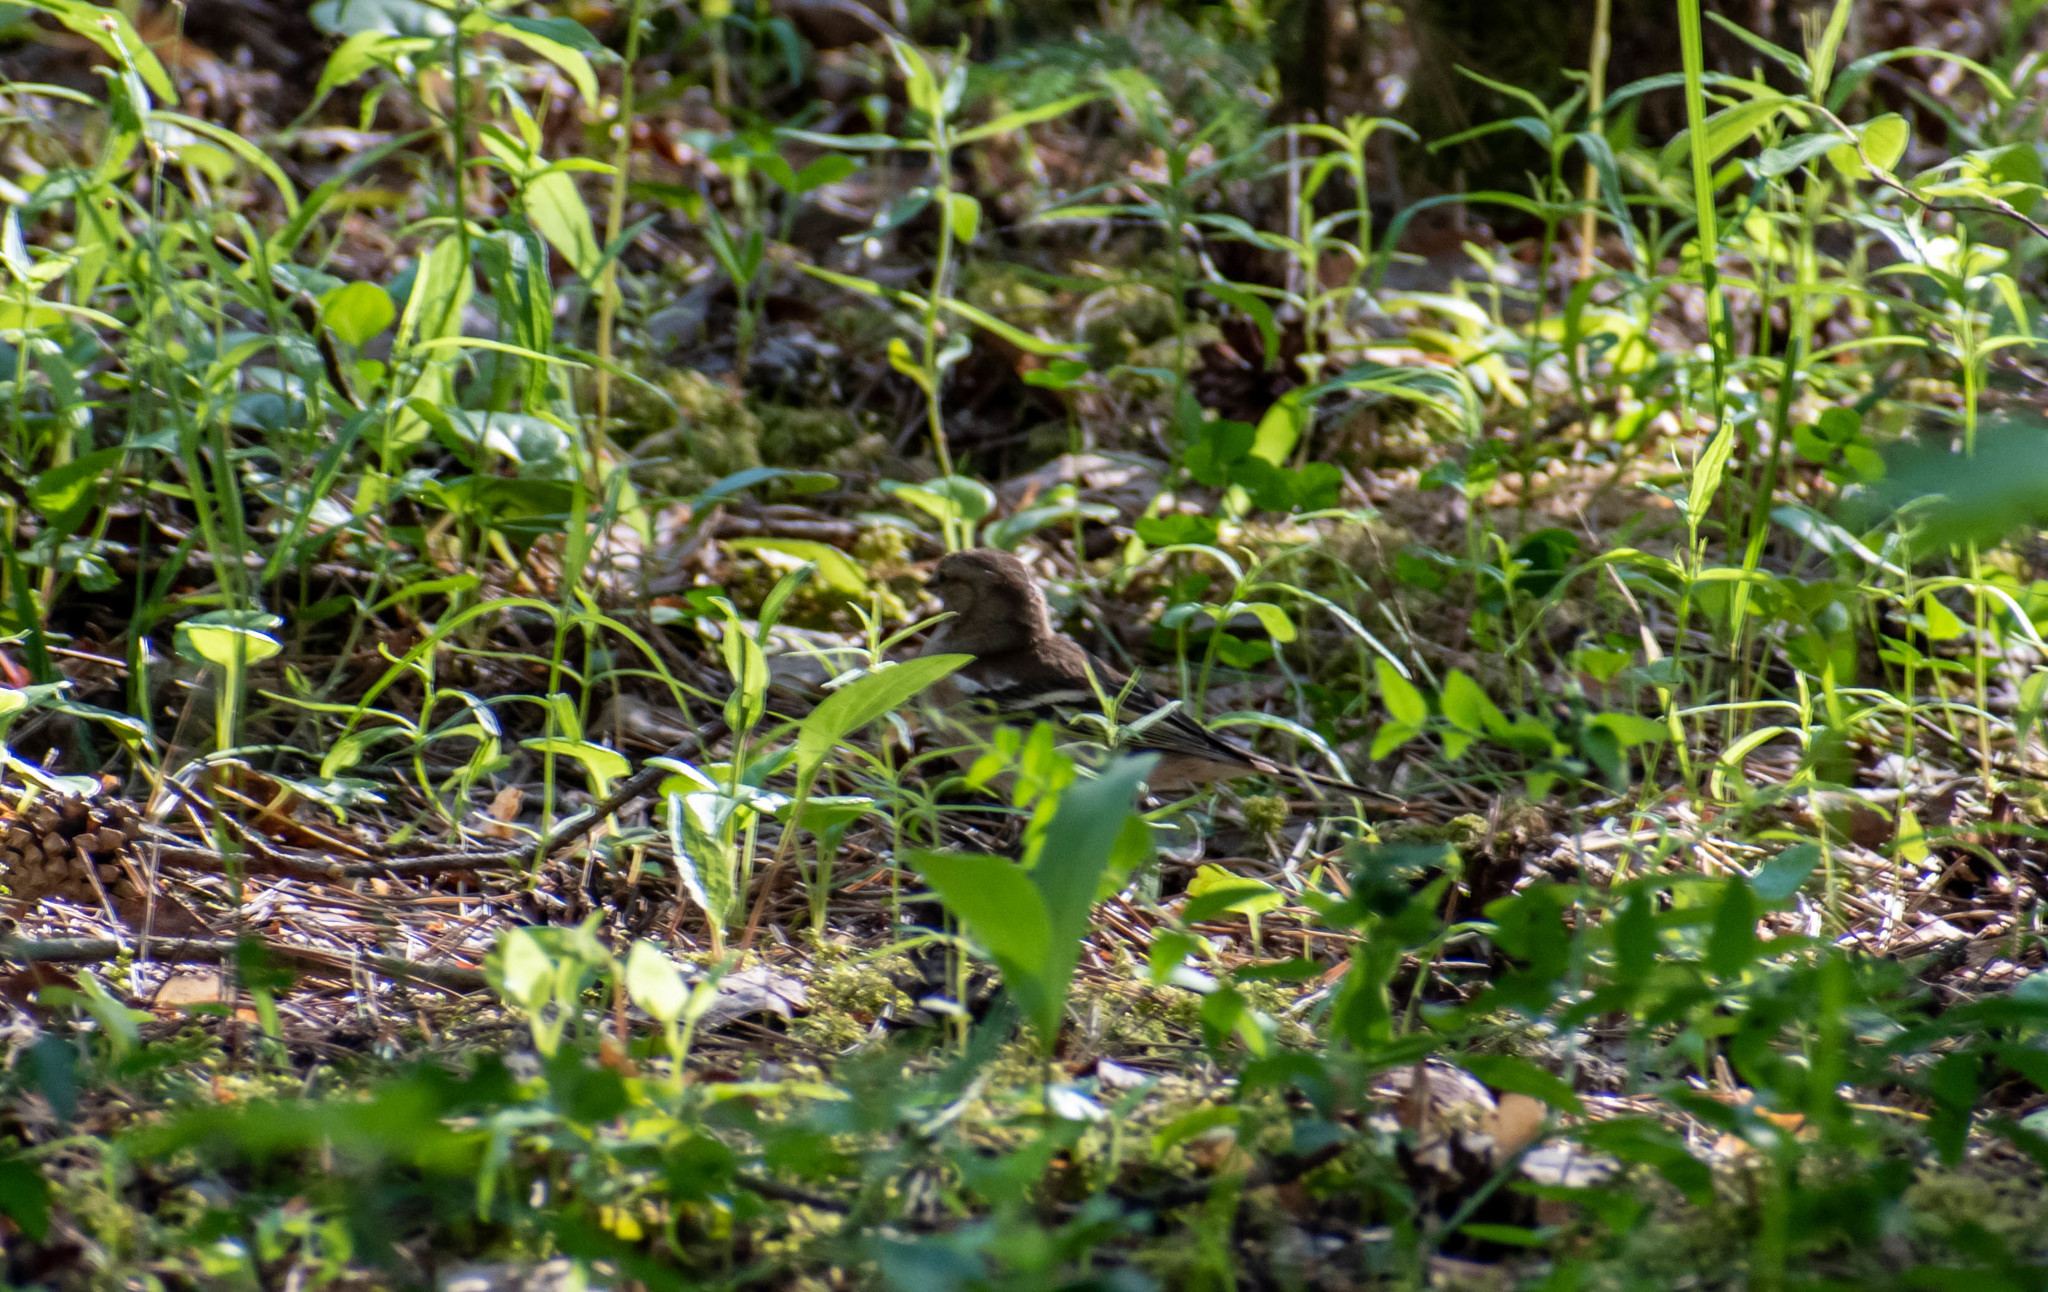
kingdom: Animalia
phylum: Chordata
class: Aves
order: Passeriformes
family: Fringillidae
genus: Fringilla
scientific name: Fringilla coelebs
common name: Common chaffinch
